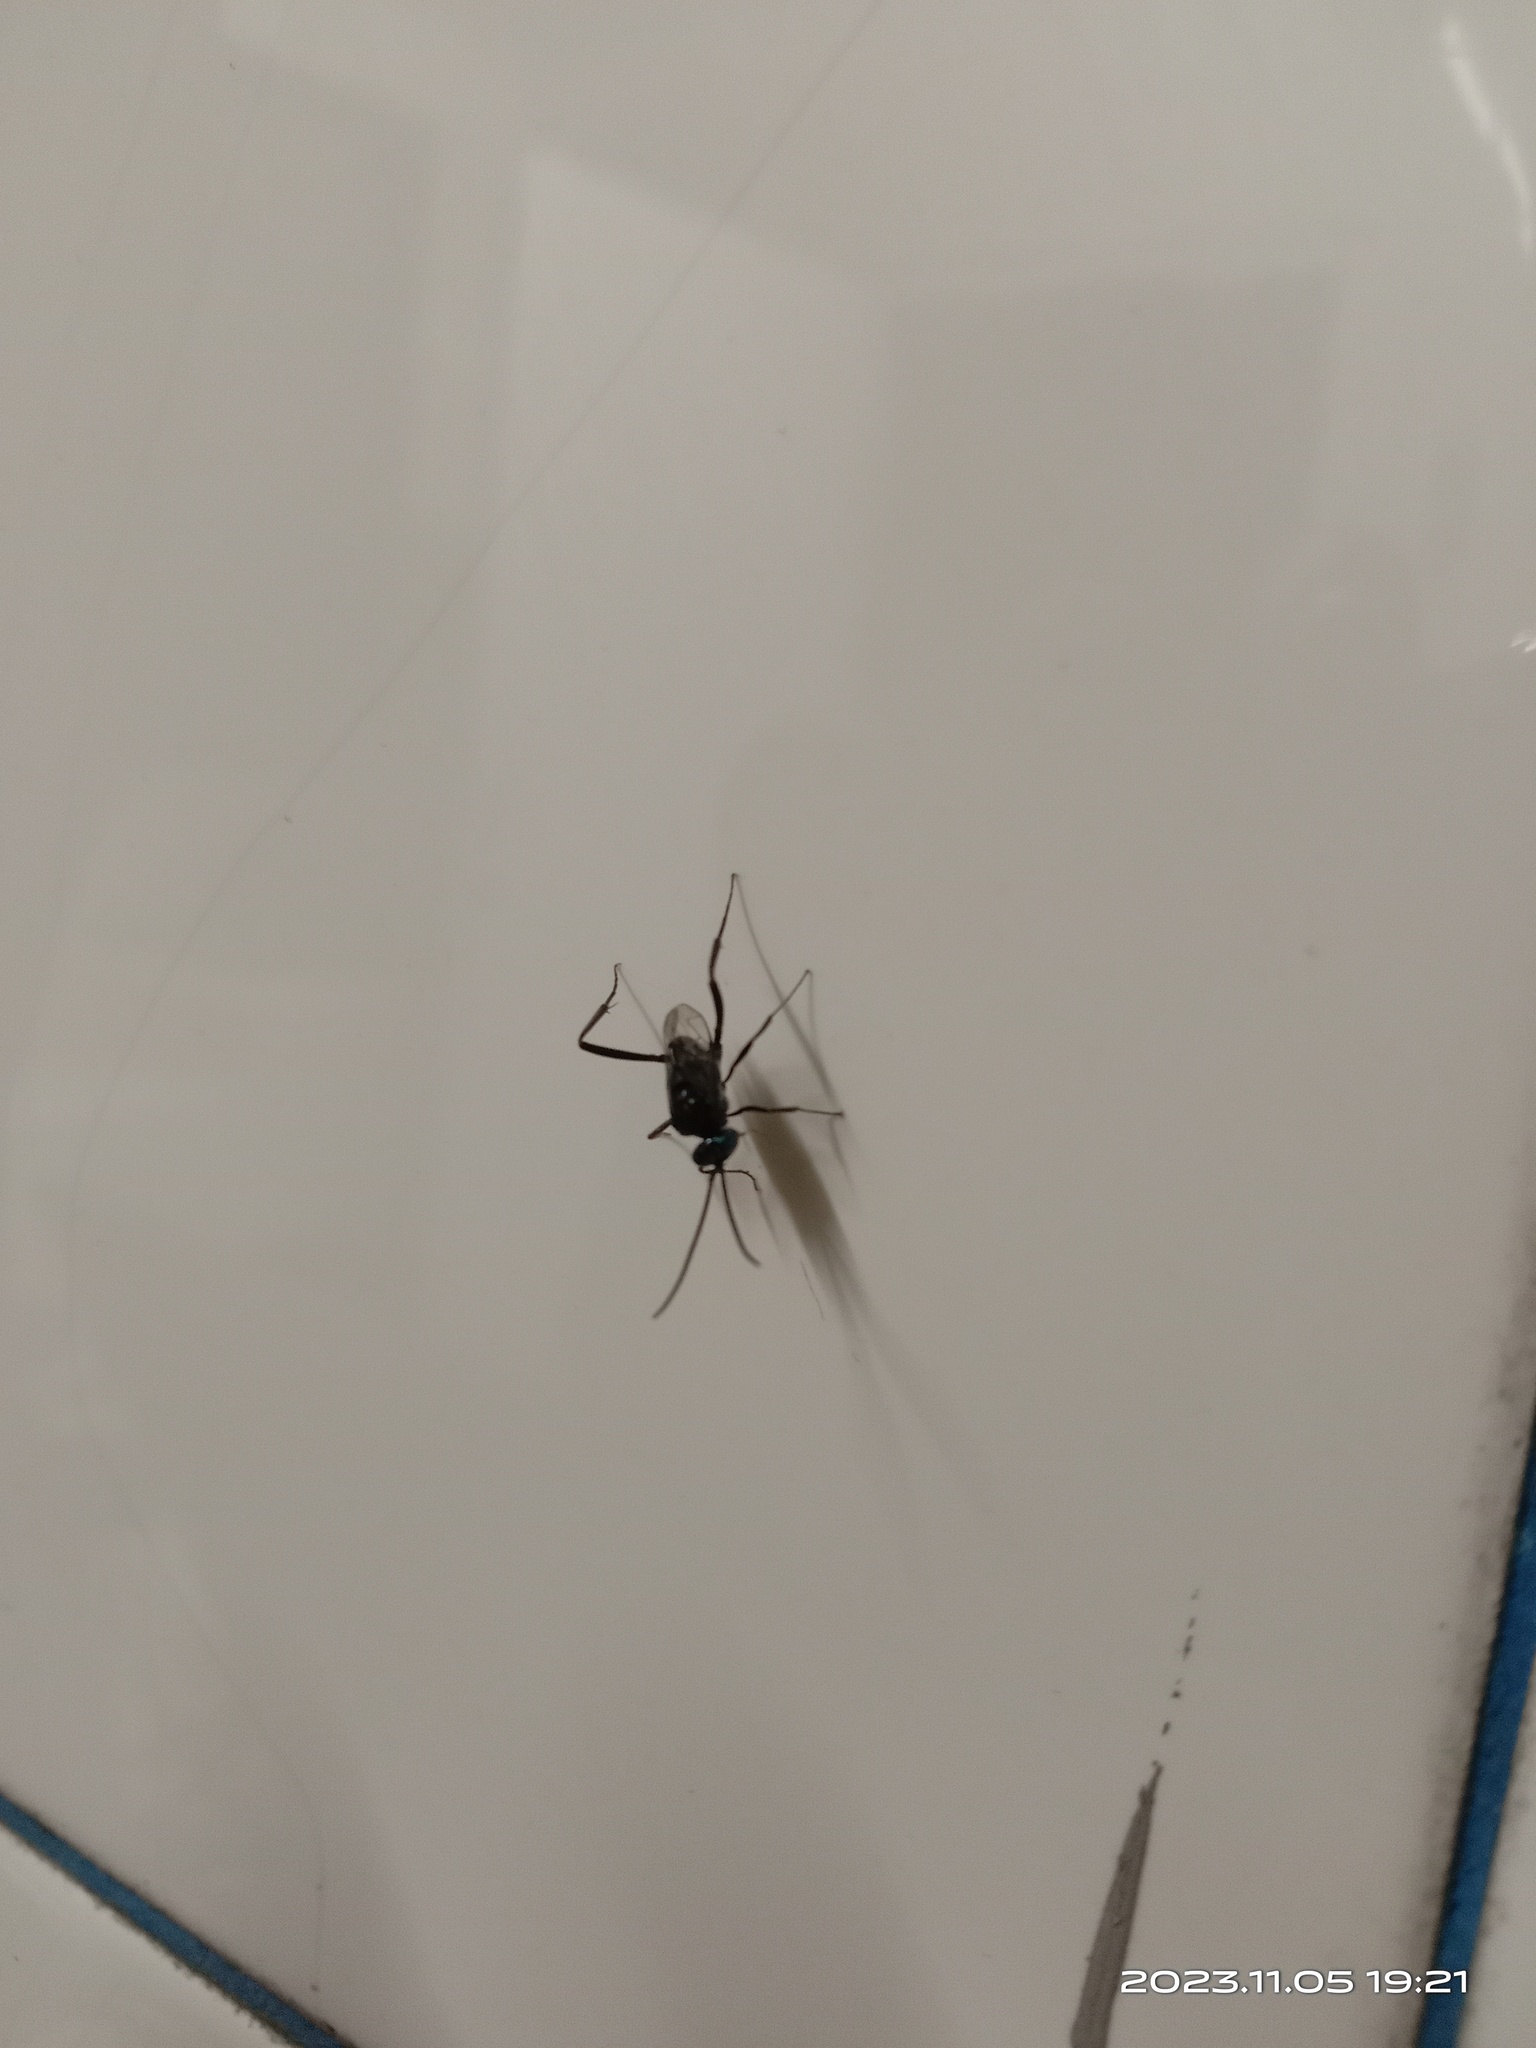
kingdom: Animalia
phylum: Arthropoda
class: Insecta
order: Hymenoptera
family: Evaniidae
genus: Evania
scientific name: Evania appendigaster
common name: Ensign wasp
